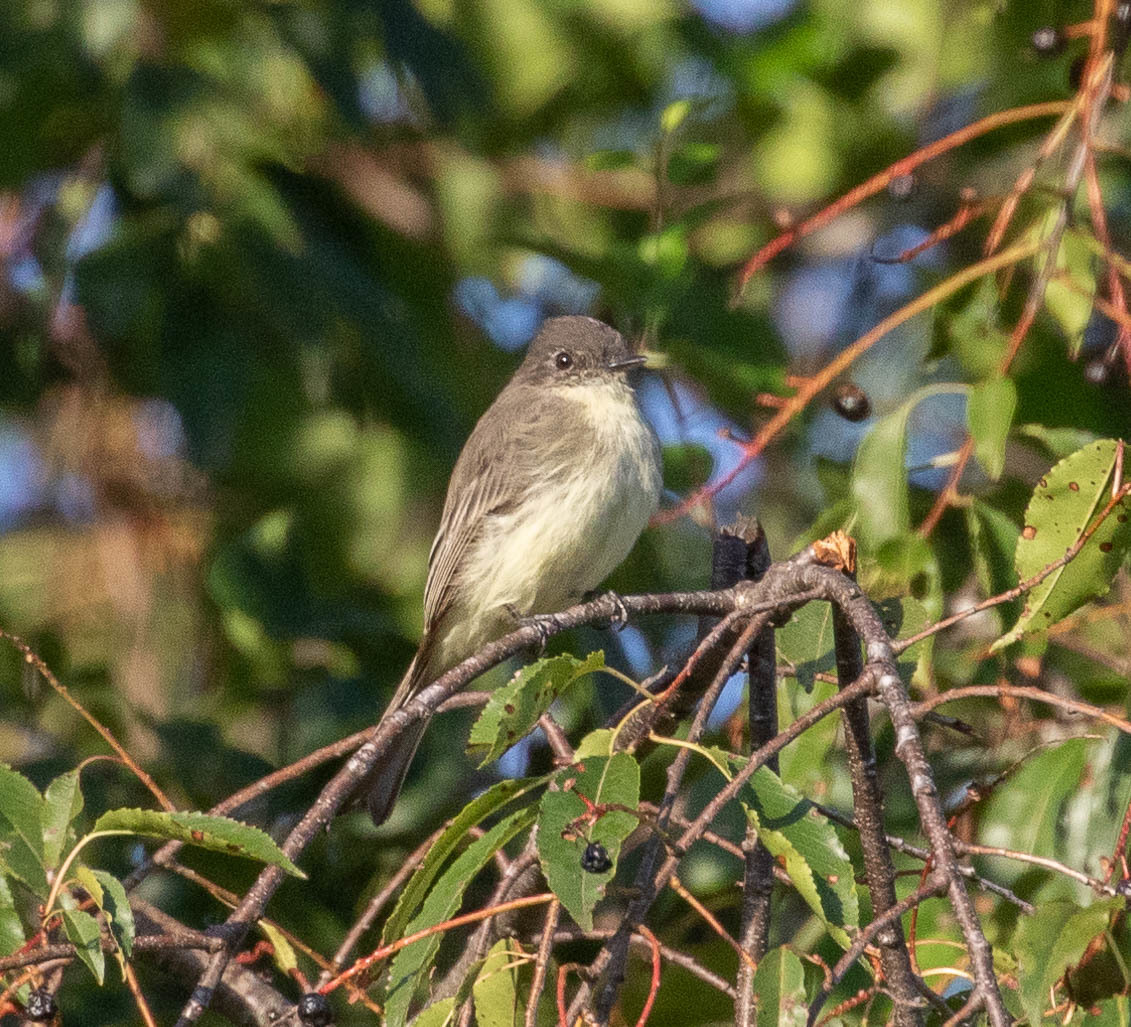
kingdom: Animalia
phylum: Chordata
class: Aves
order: Passeriformes
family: Tyrannidae
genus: Sayornis
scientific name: Sayornis phoebe
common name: Eastern phoebe
